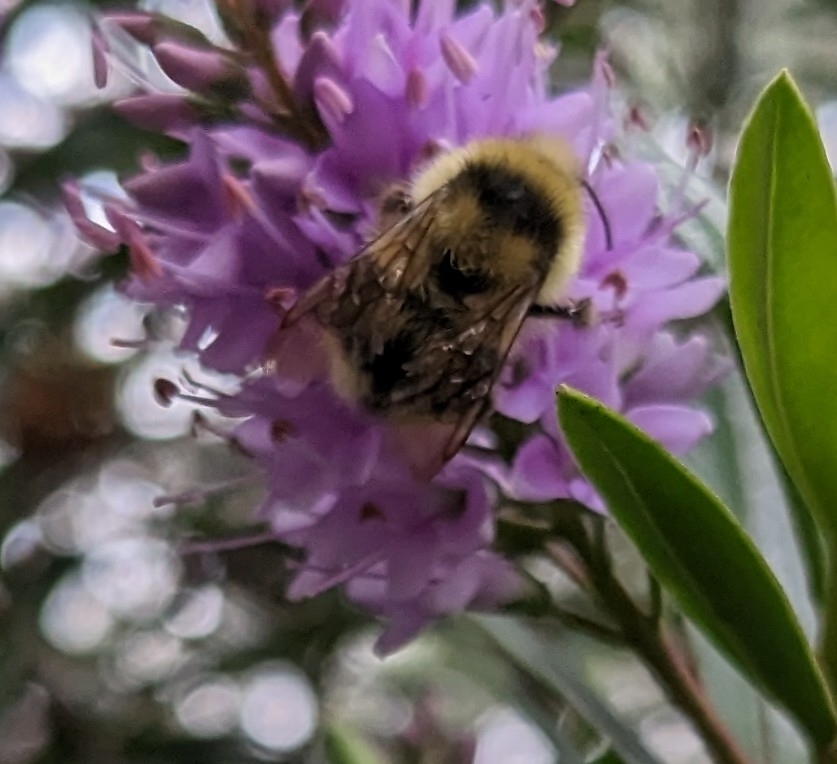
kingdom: Animalia
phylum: Arthropoda
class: Insecta
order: Hymenoptera
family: Apidae
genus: Bombus
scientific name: Bombus melanopygus
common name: Black tail bumble bee
